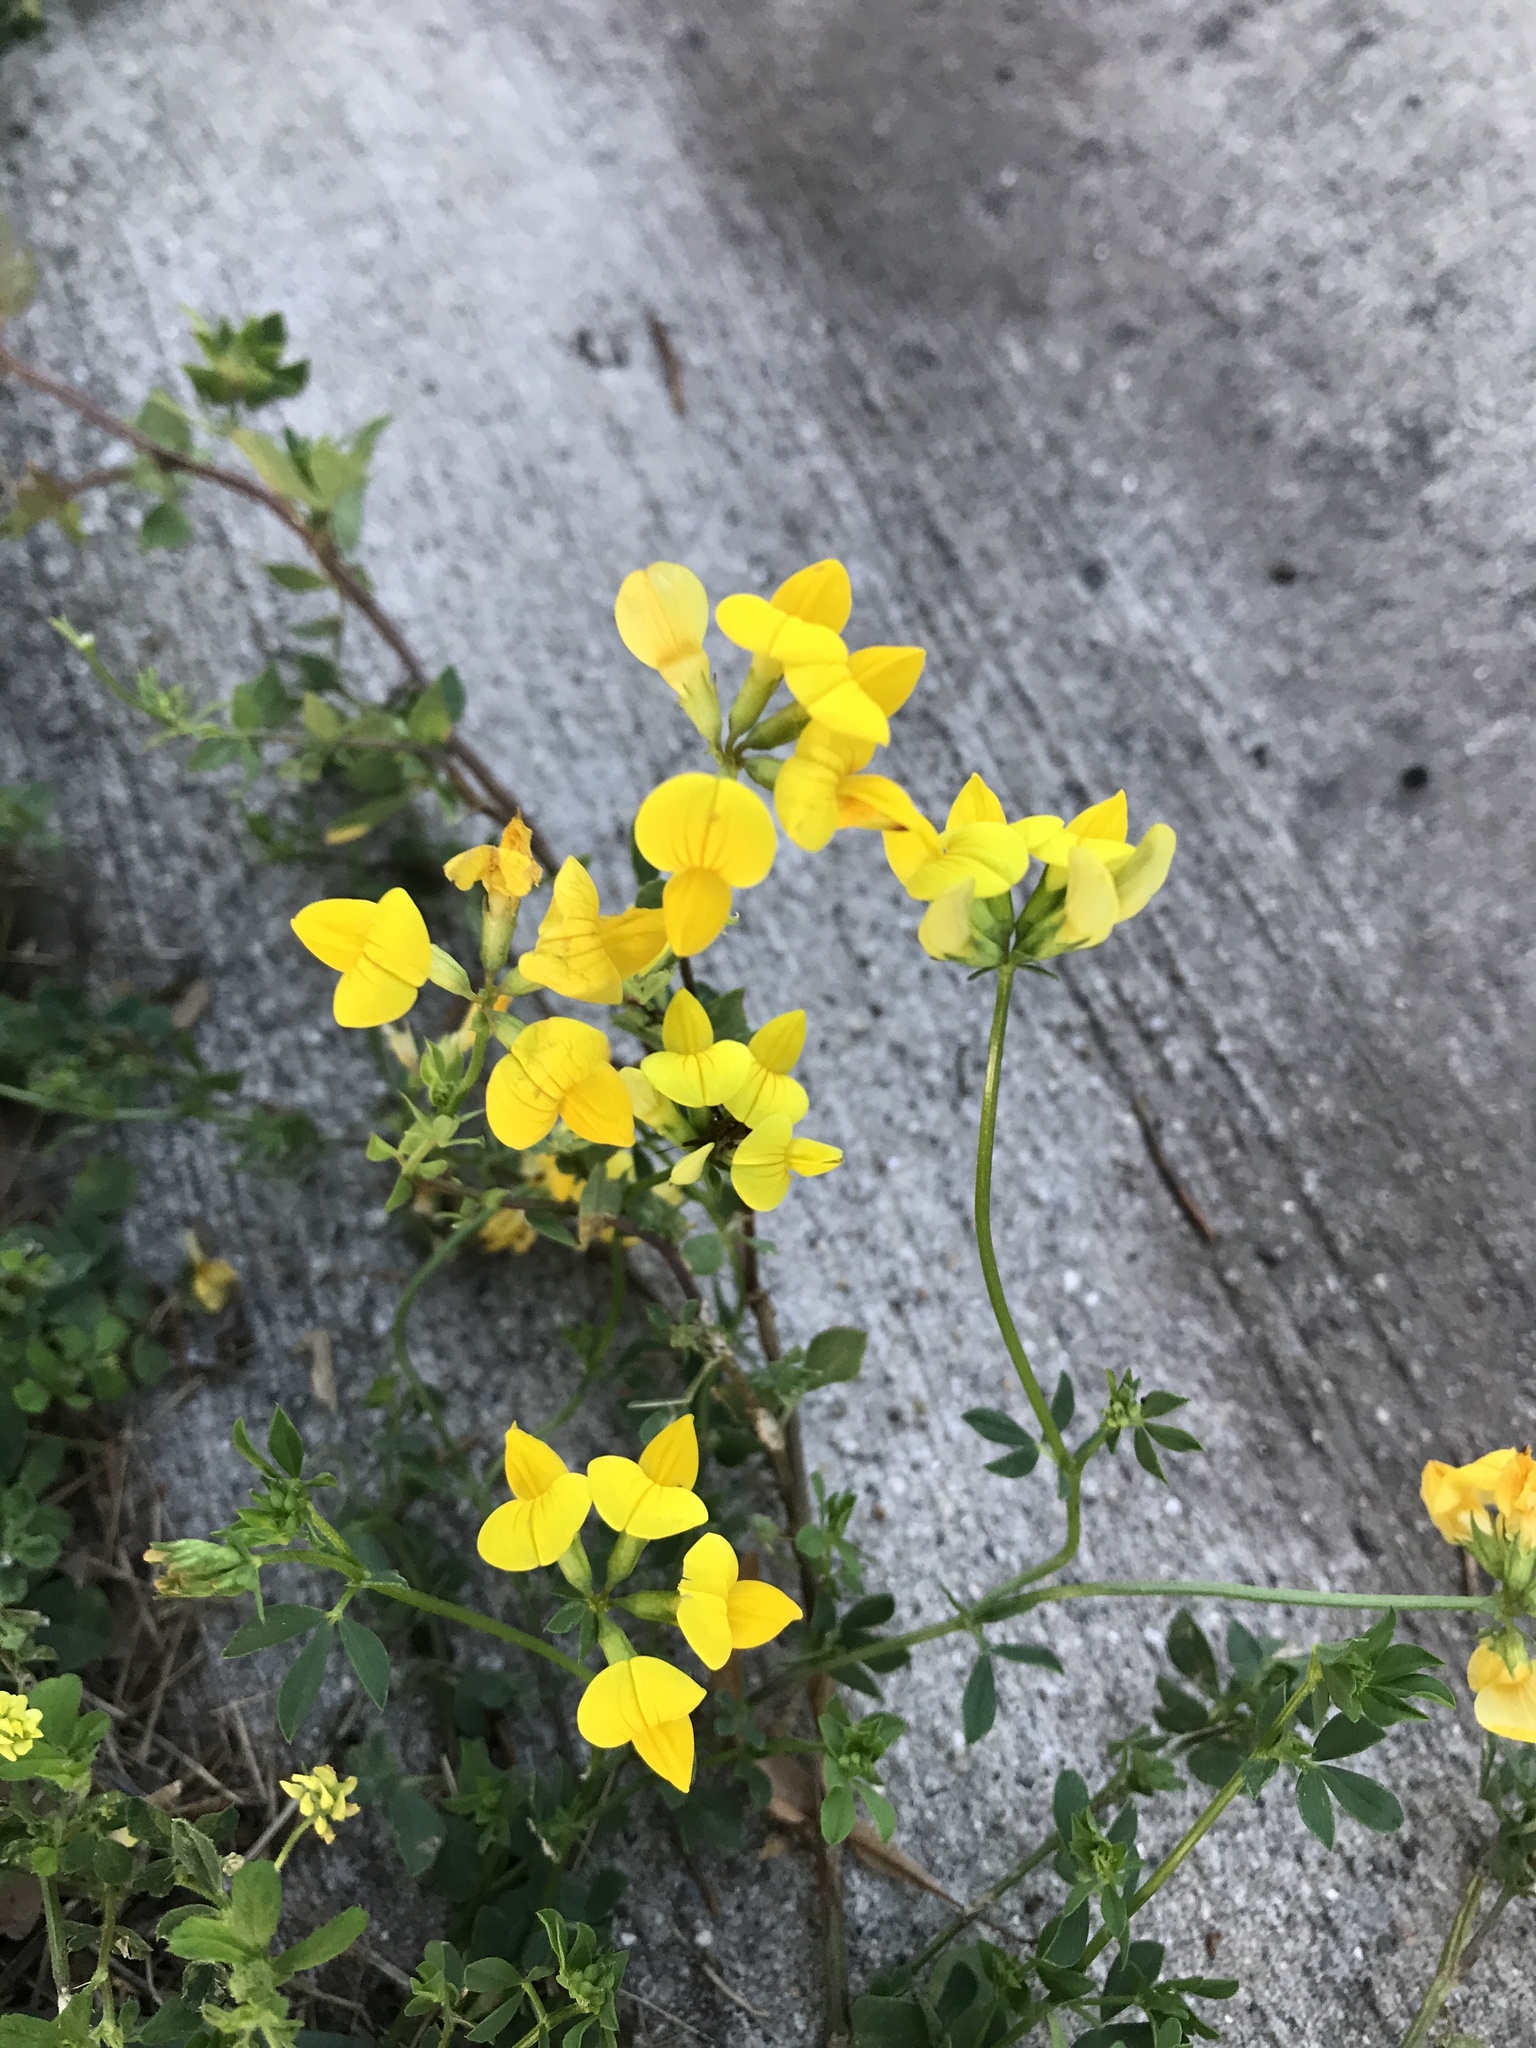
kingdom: Plantae
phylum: Tracheophyta
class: Magnoliopsida
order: Fabales
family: Fabaceae
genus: Lotus
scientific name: Lotus corniculatus
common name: Common bird's-foot-trefoil
